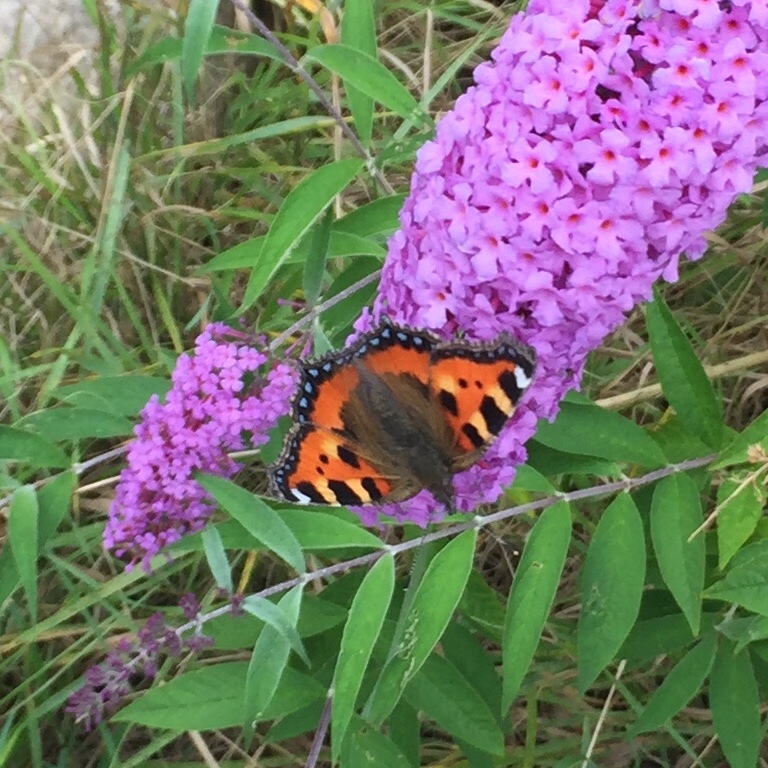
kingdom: Animalia
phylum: Arthropoda
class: Insecta
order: Lepidoptera
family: Nymphalidae
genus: Aglais
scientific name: Aglais urticae
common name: Small tortoiseshell
